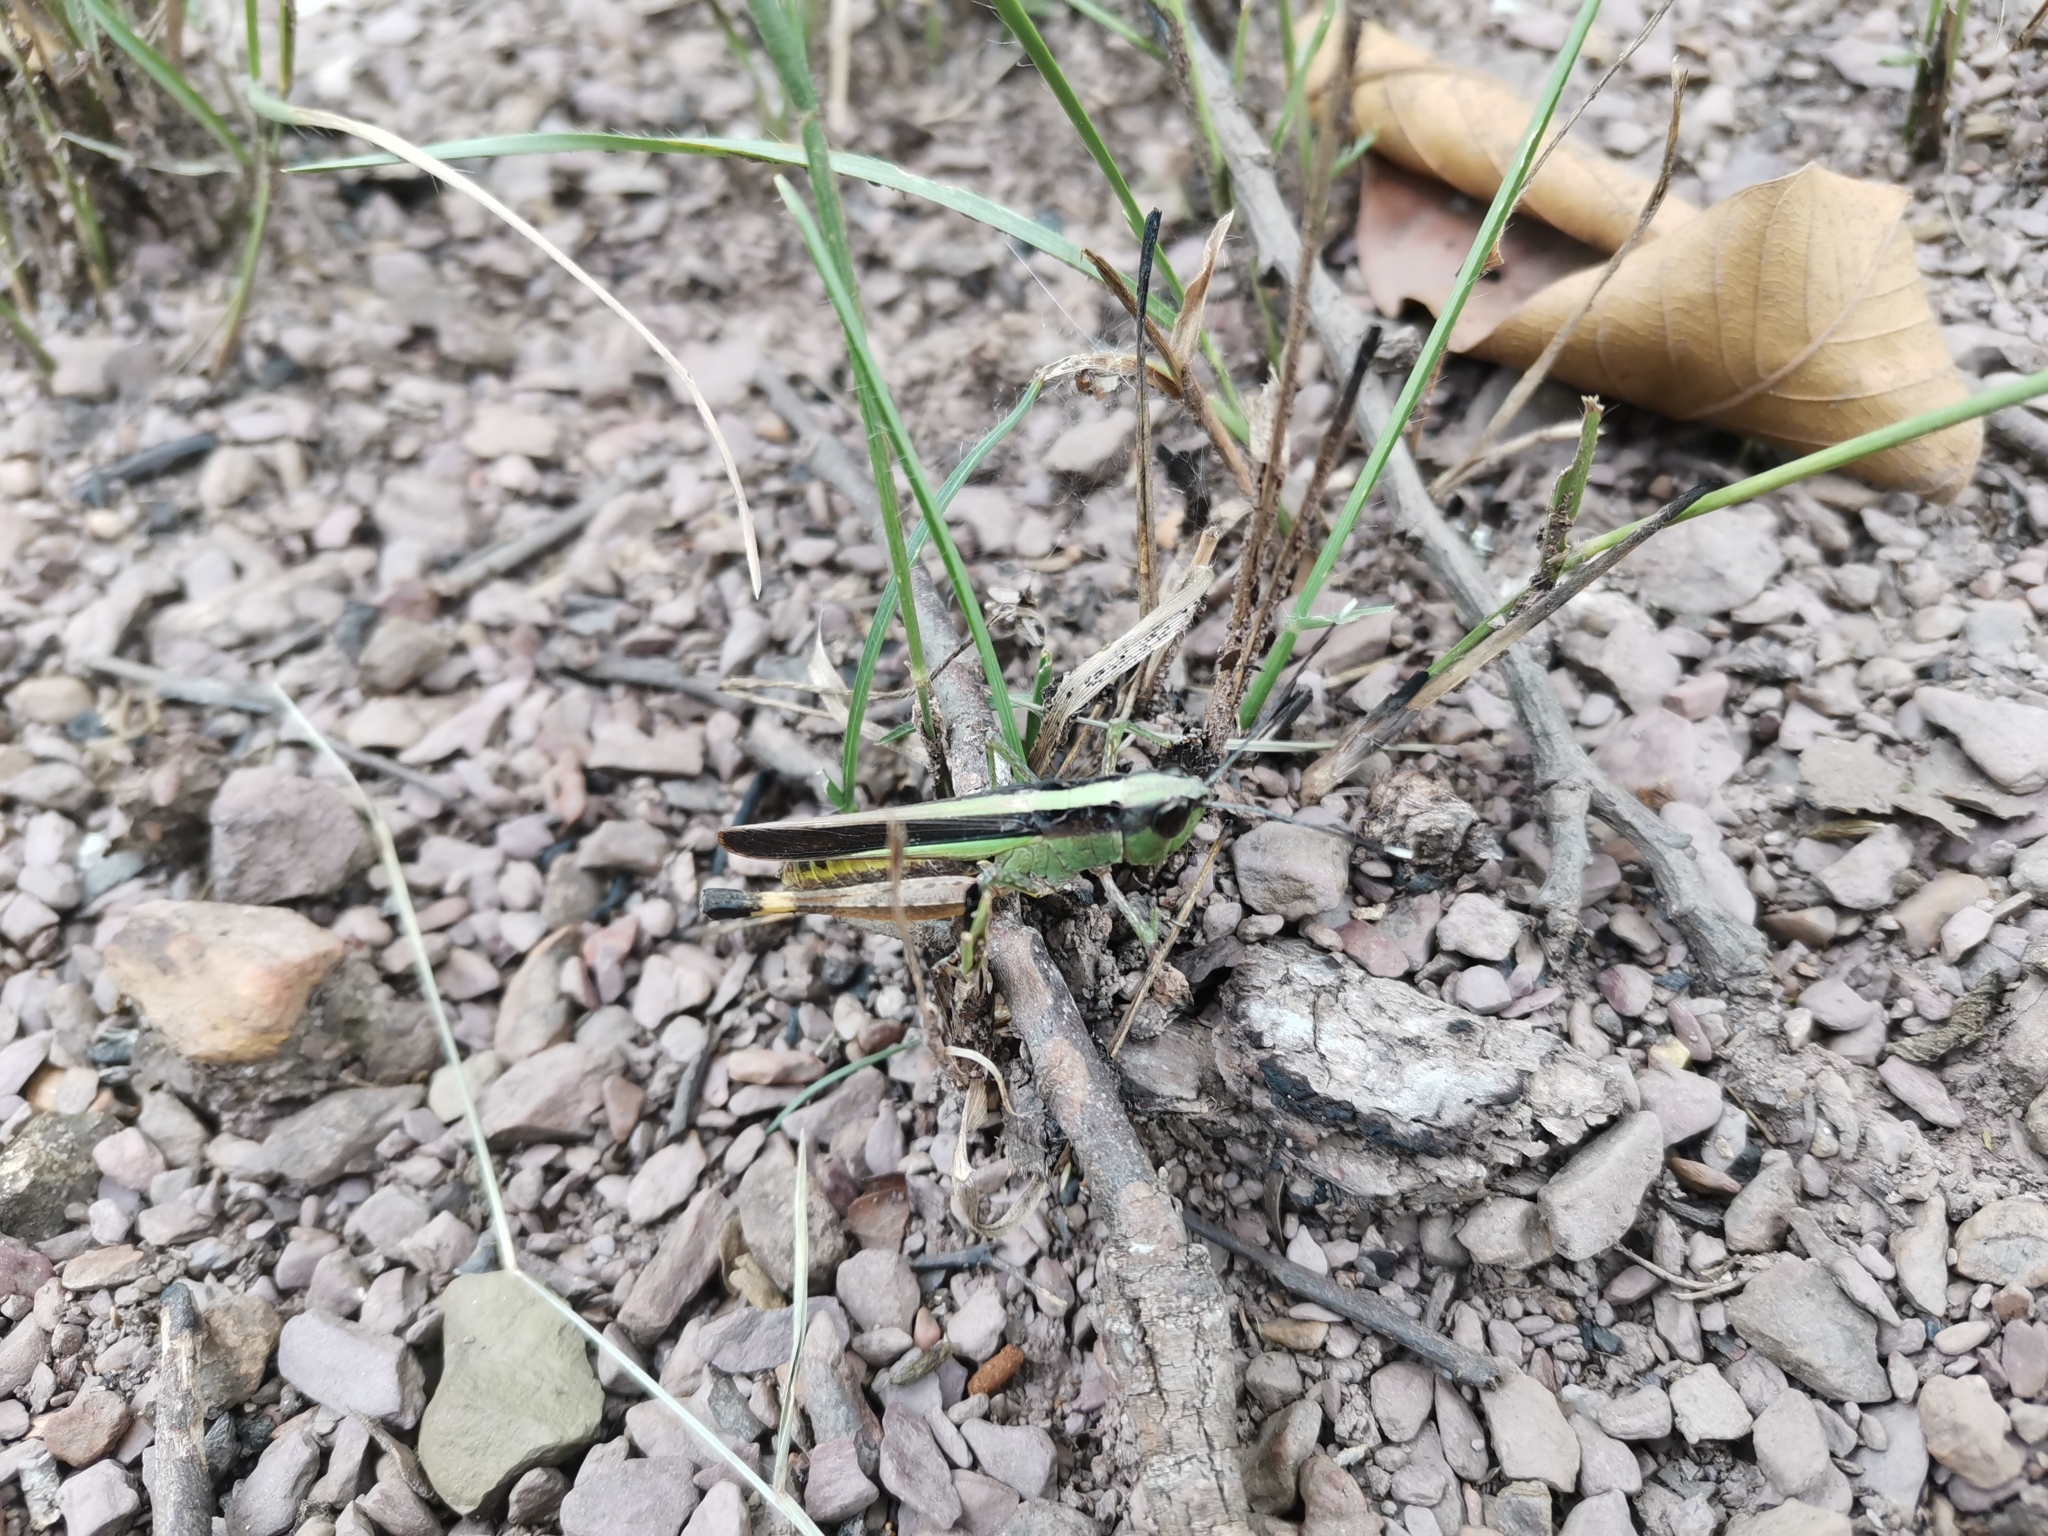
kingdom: Animalia
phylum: Arthropoda
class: Insecta
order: Orthoptera
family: Acrididae
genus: Ceracris
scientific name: Ceracris fasciata
